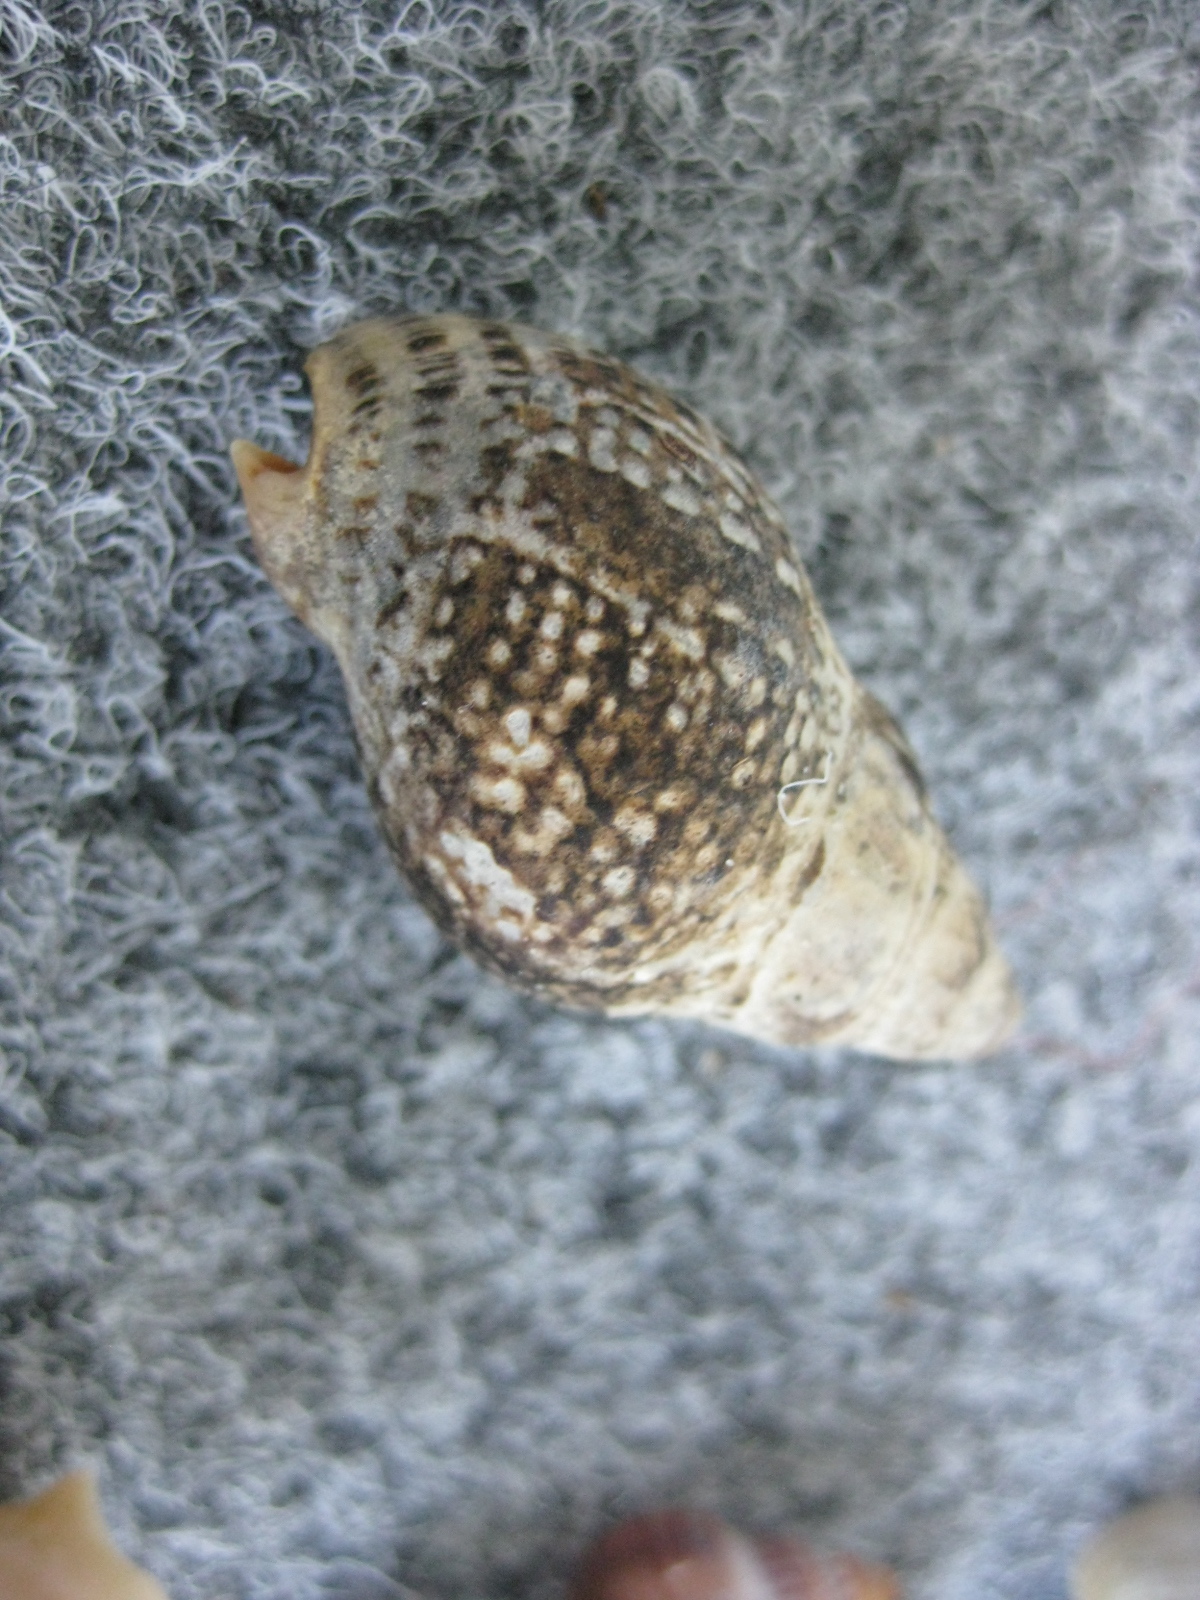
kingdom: Animalia
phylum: Mollusca
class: Gastropoda
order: Neogastropoda
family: Cominellidae
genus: Cominella
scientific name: Cominella maculosa
